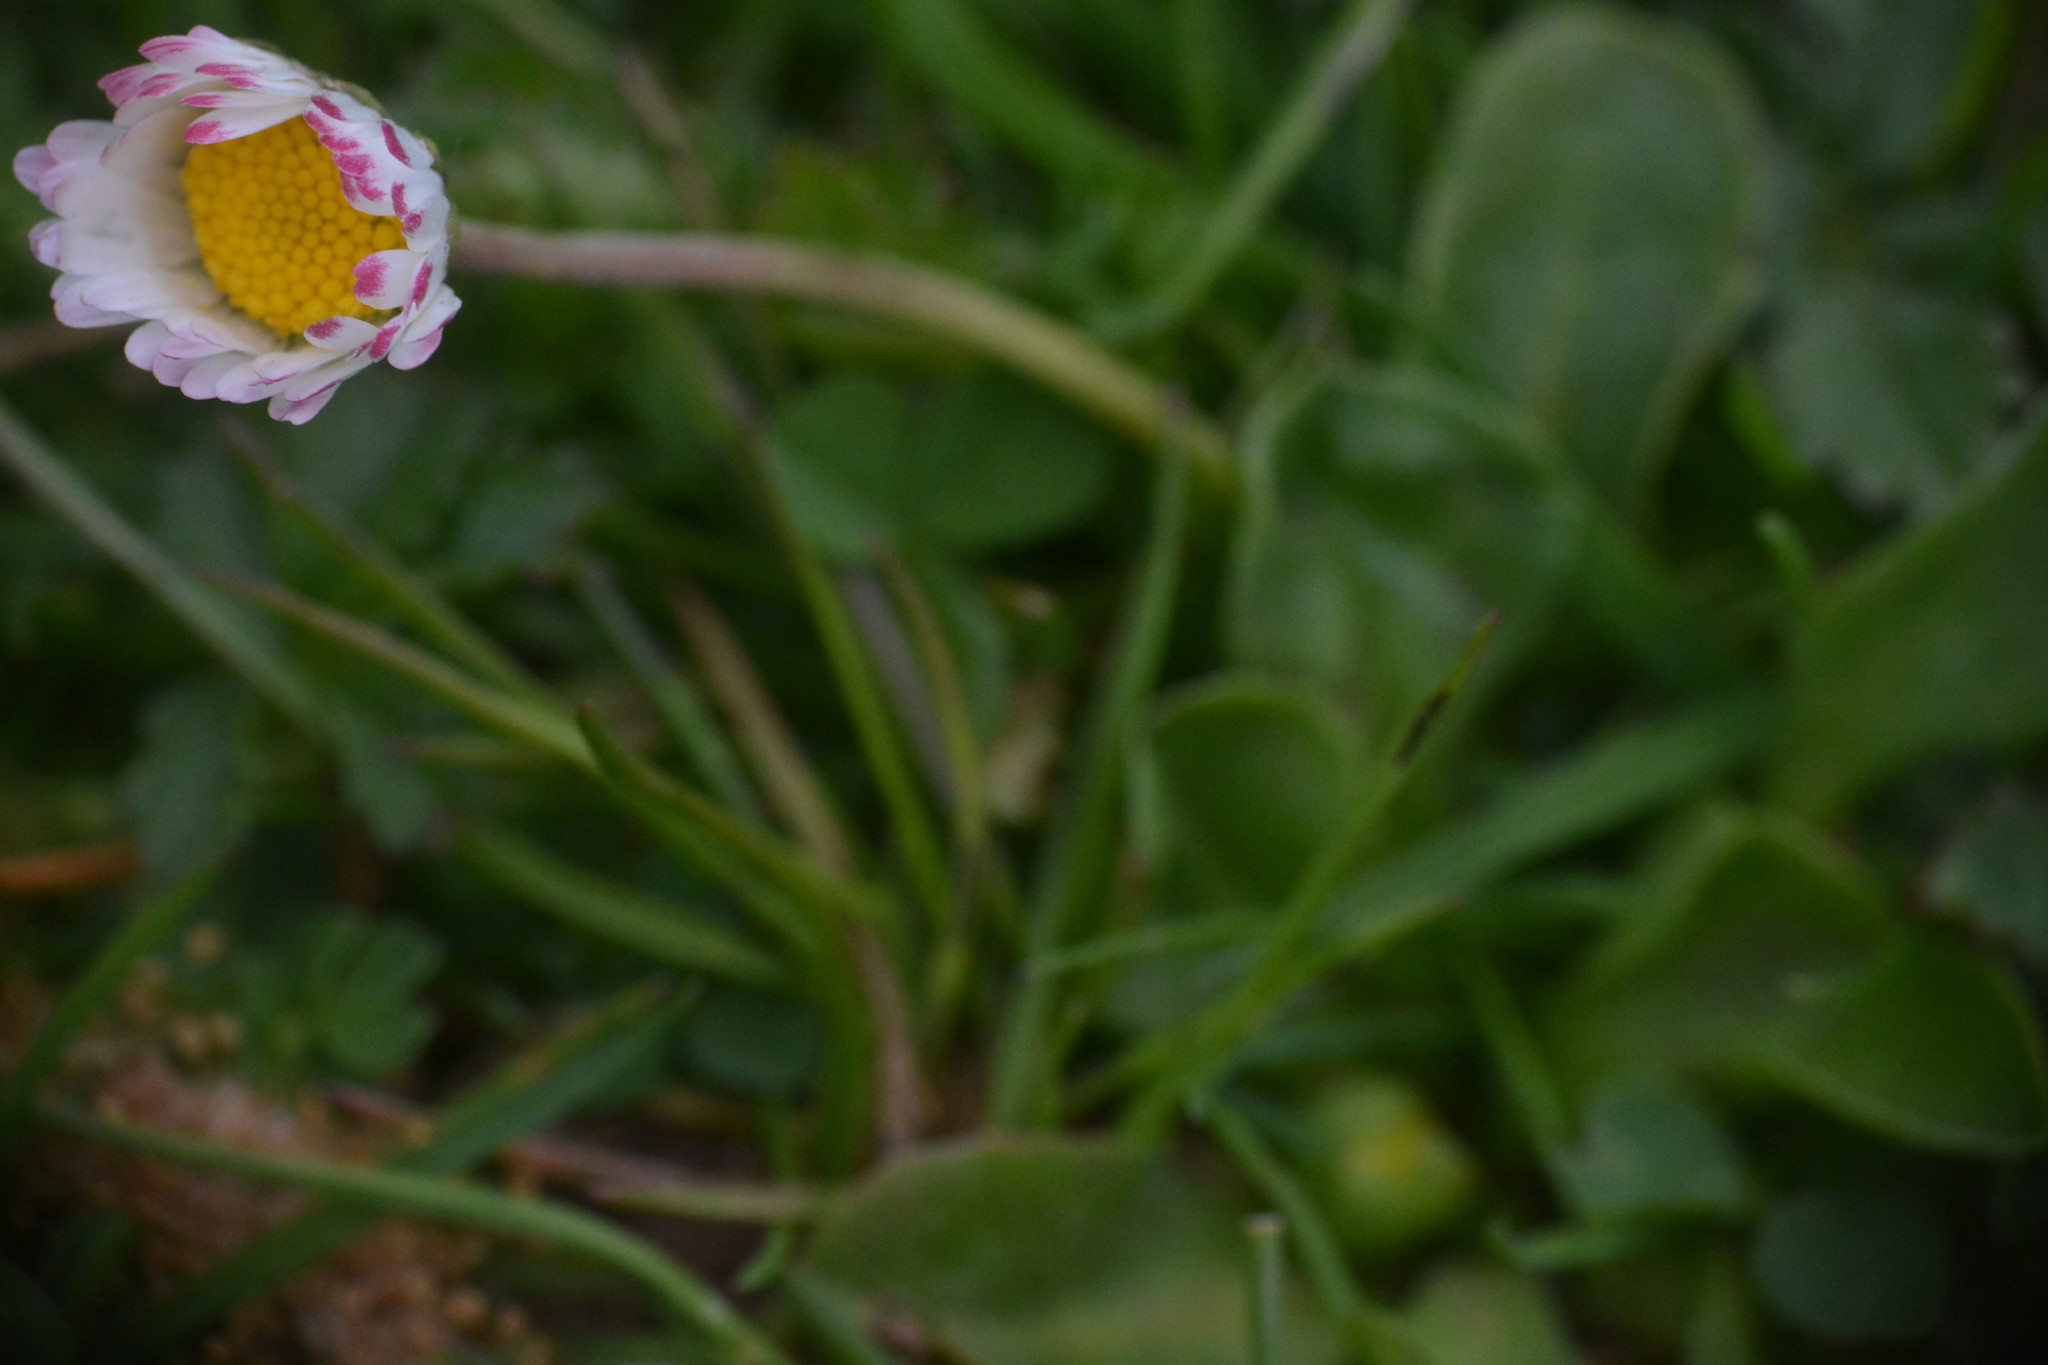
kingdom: Plantae
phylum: Tracheophyta
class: Magnoliopsida
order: Asterales
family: Asteraceae
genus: Bellis
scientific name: Bellis perennis
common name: Lawndaisy
